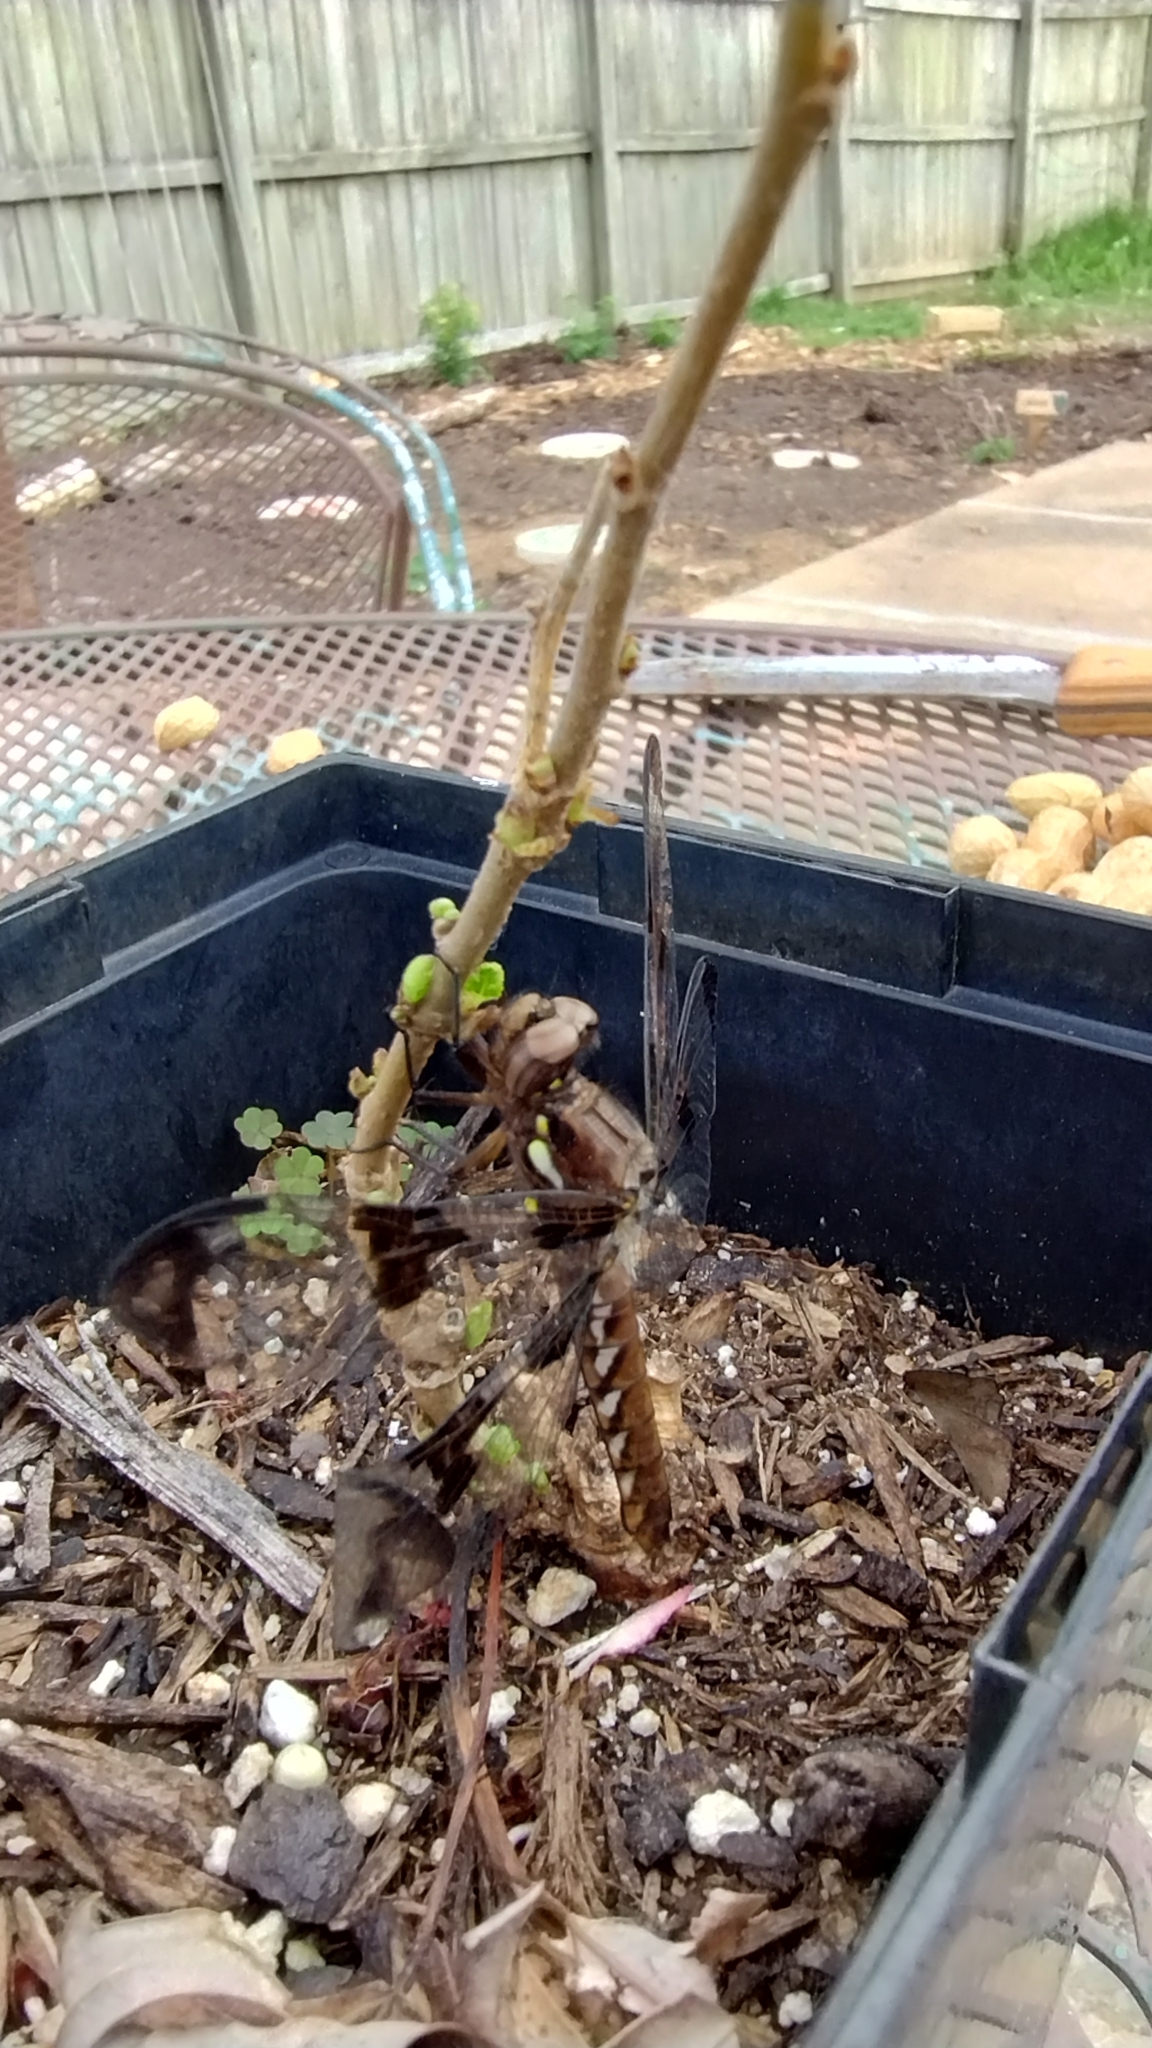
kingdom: Animalia
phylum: Arthropoda
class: Insecta
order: Odonata
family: Libellulidae
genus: Plathemis
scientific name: Plathemis lydia
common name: Common whitetail
